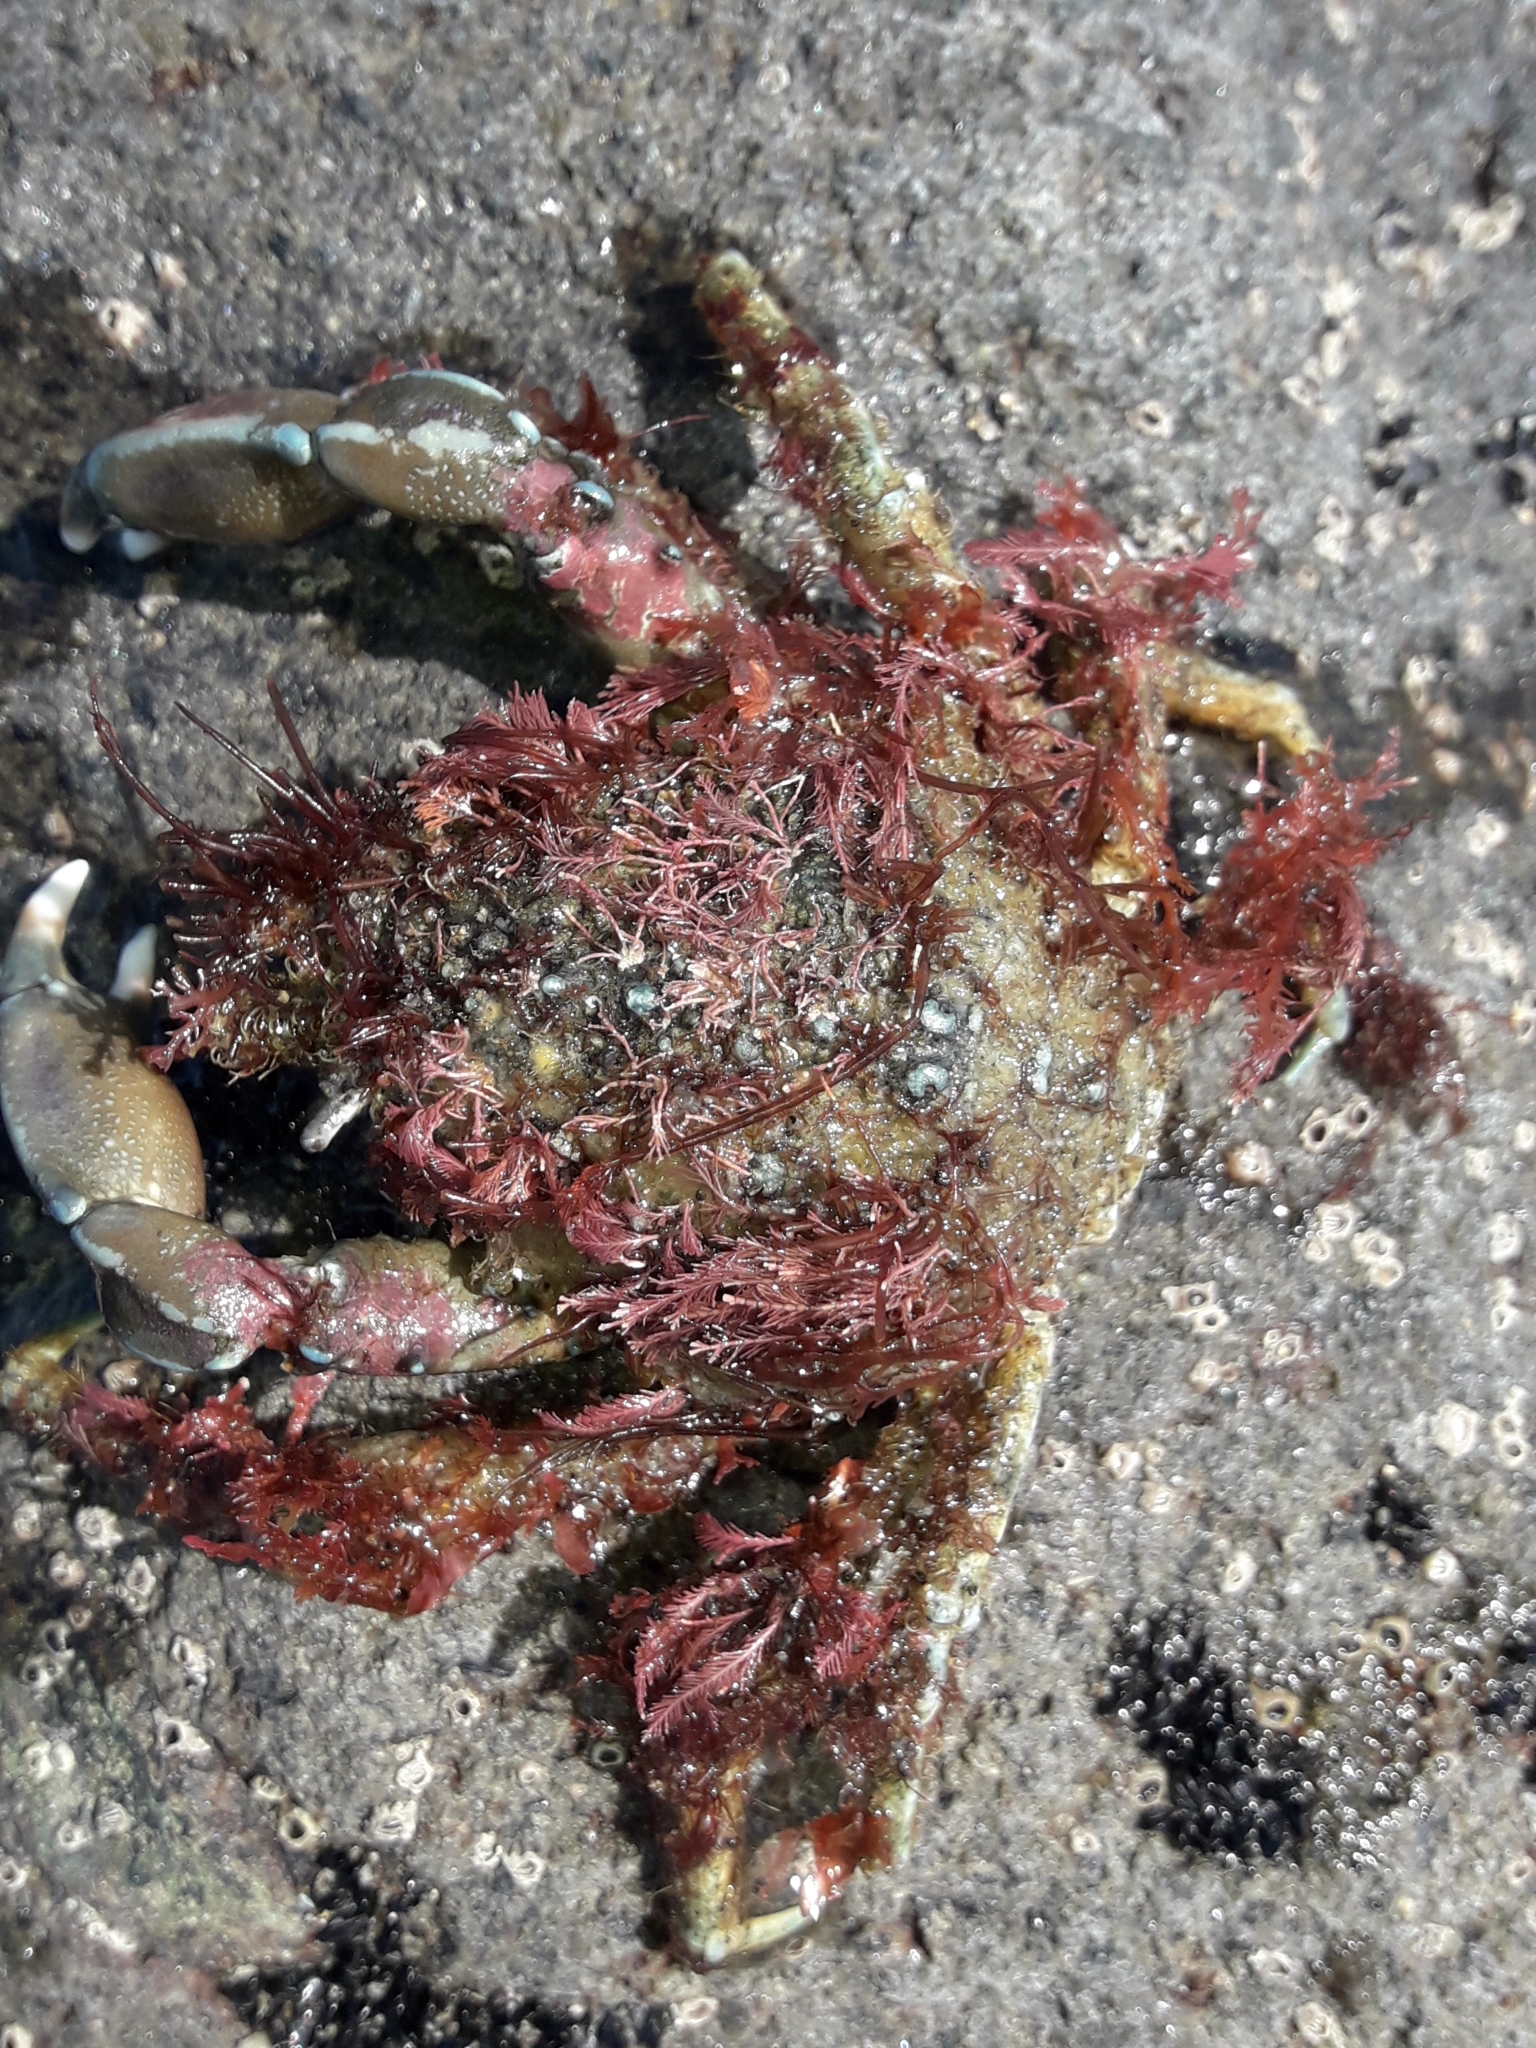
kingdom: Animalia
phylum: Arthropoda
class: Malacostraca
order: Decapoda
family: Majidae
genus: Notomithrax
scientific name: Notomithrax minor
